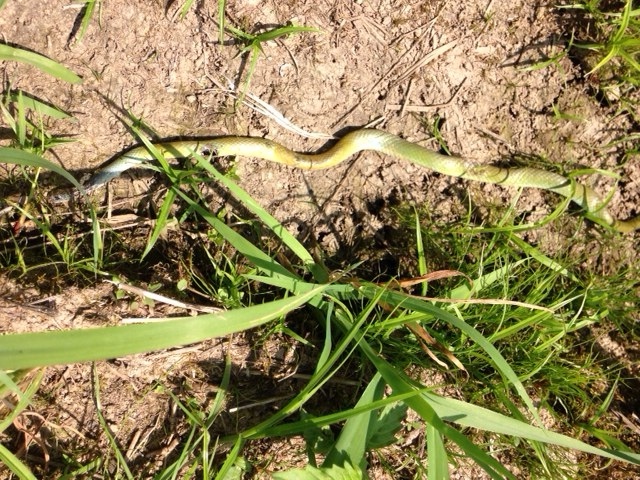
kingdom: Animalia
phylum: Chordata
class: Squamata
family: Colubridae
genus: Opheodrys
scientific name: Opheodrys vernalis
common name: Smooth green snake
